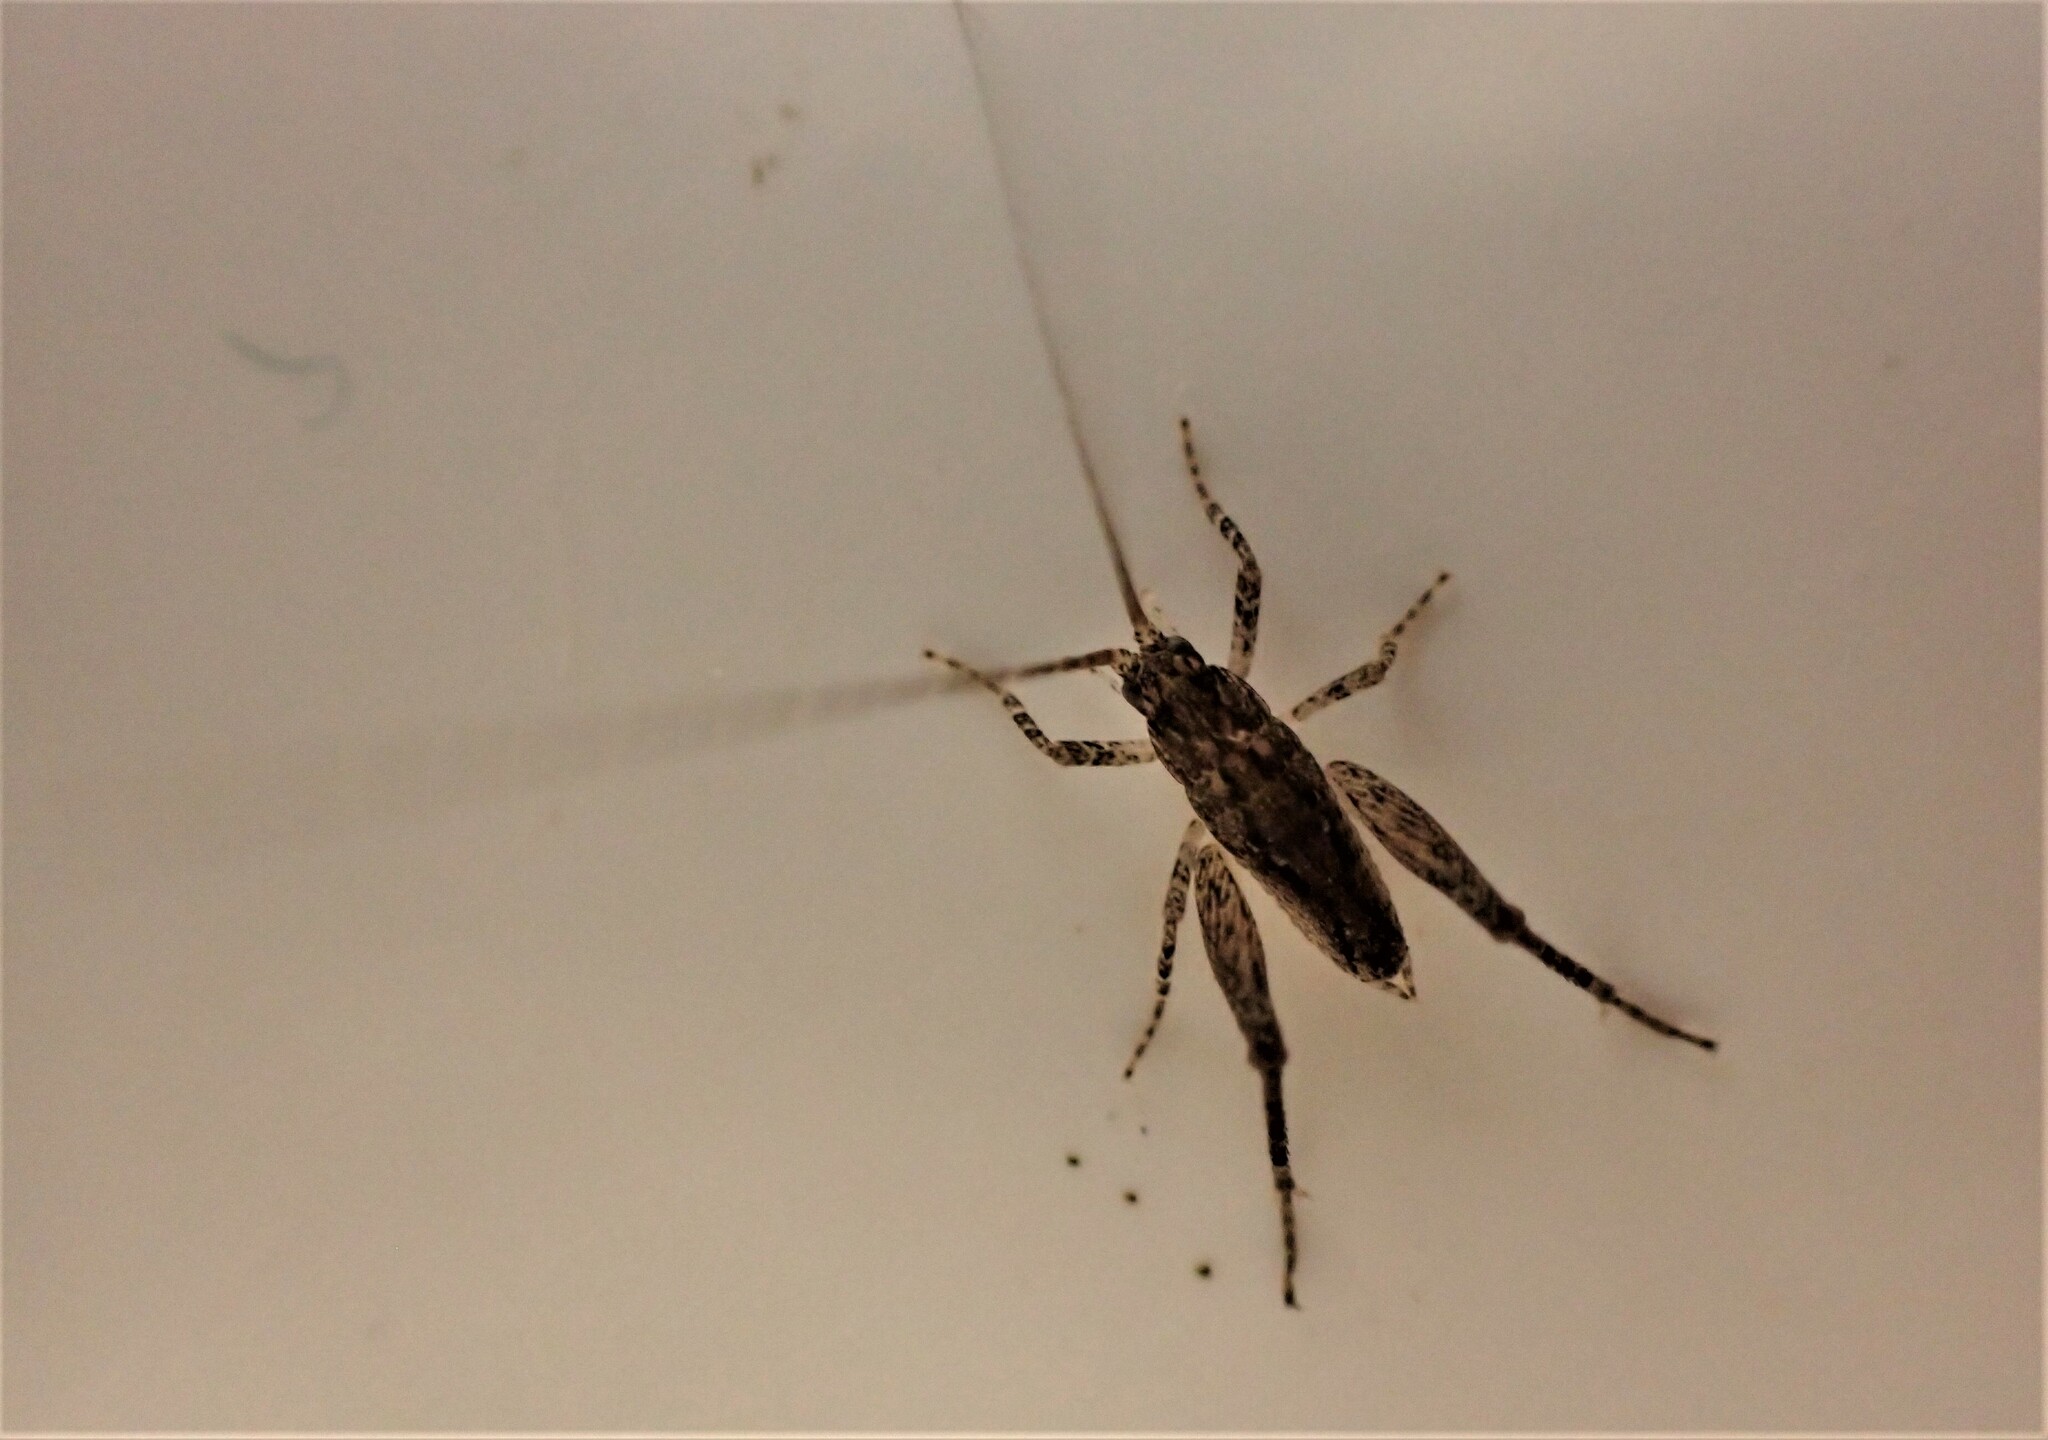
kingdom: Animalia
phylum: Arthropoda
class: Insecta
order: Orthoptera
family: Rhaphidophoridae
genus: Isoplectron
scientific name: Isoplectron armatum
